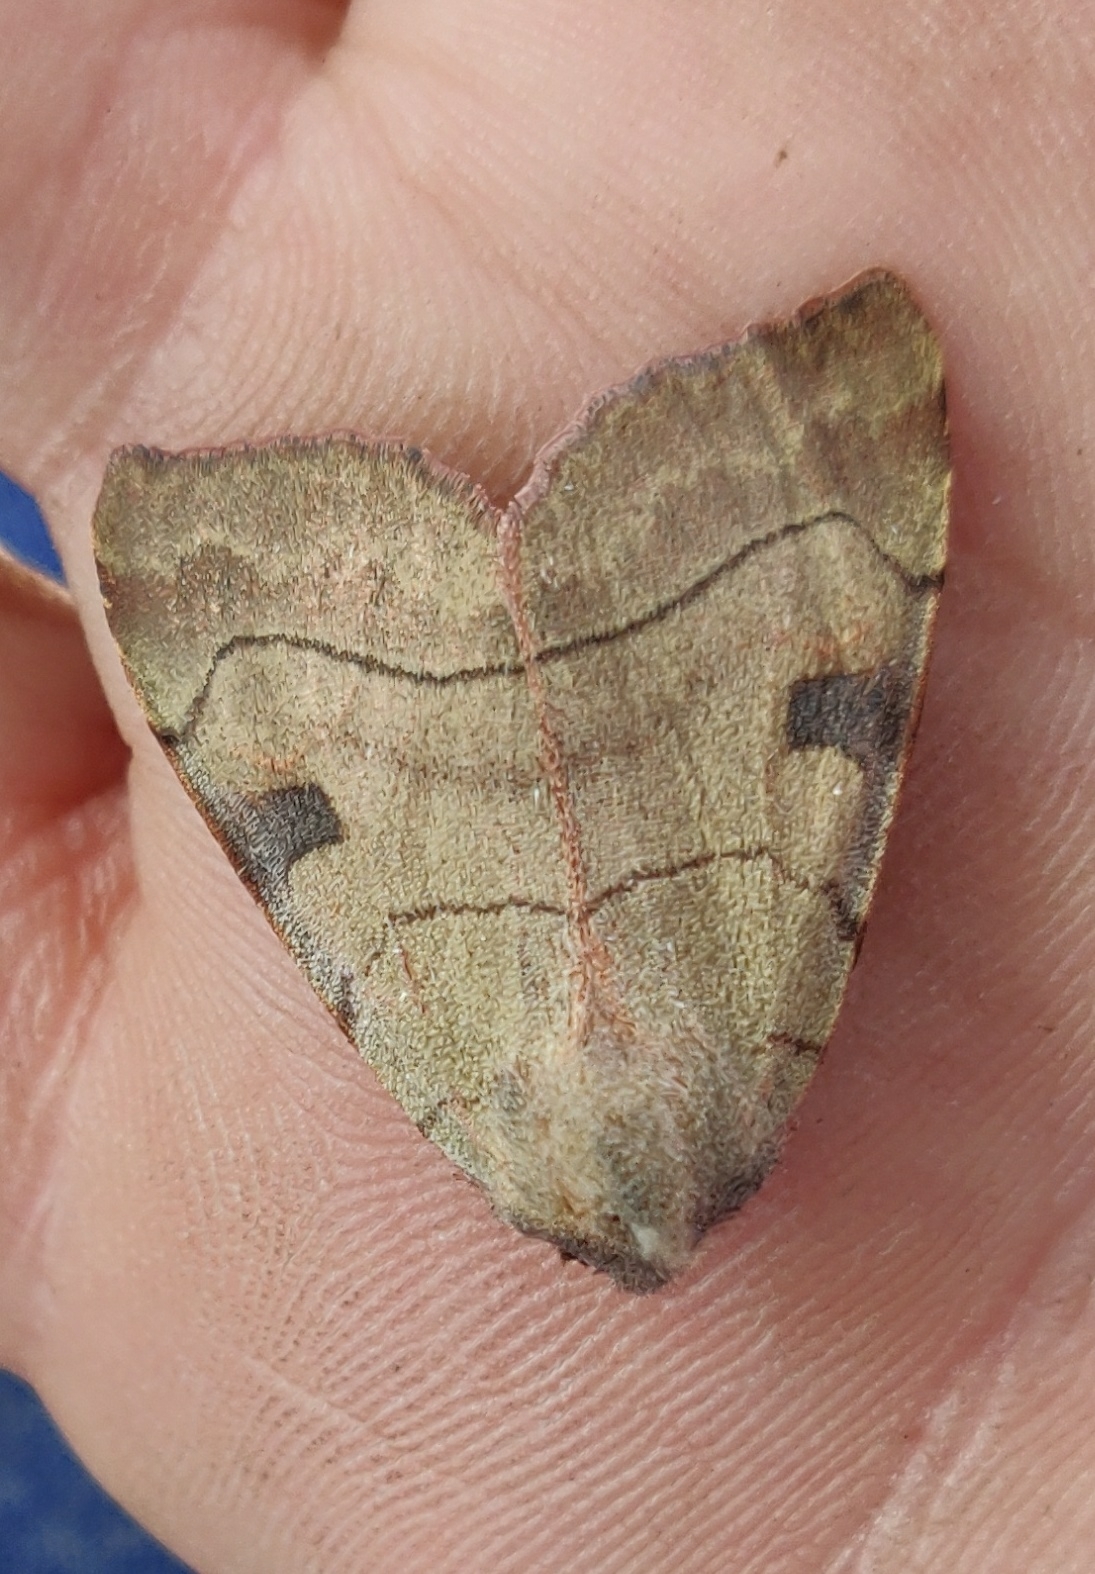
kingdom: Animalia
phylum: Arthropoda
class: Insecta
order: Lepidoptera
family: Noctuidae
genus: Choephora
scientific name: Choephora fungorum
